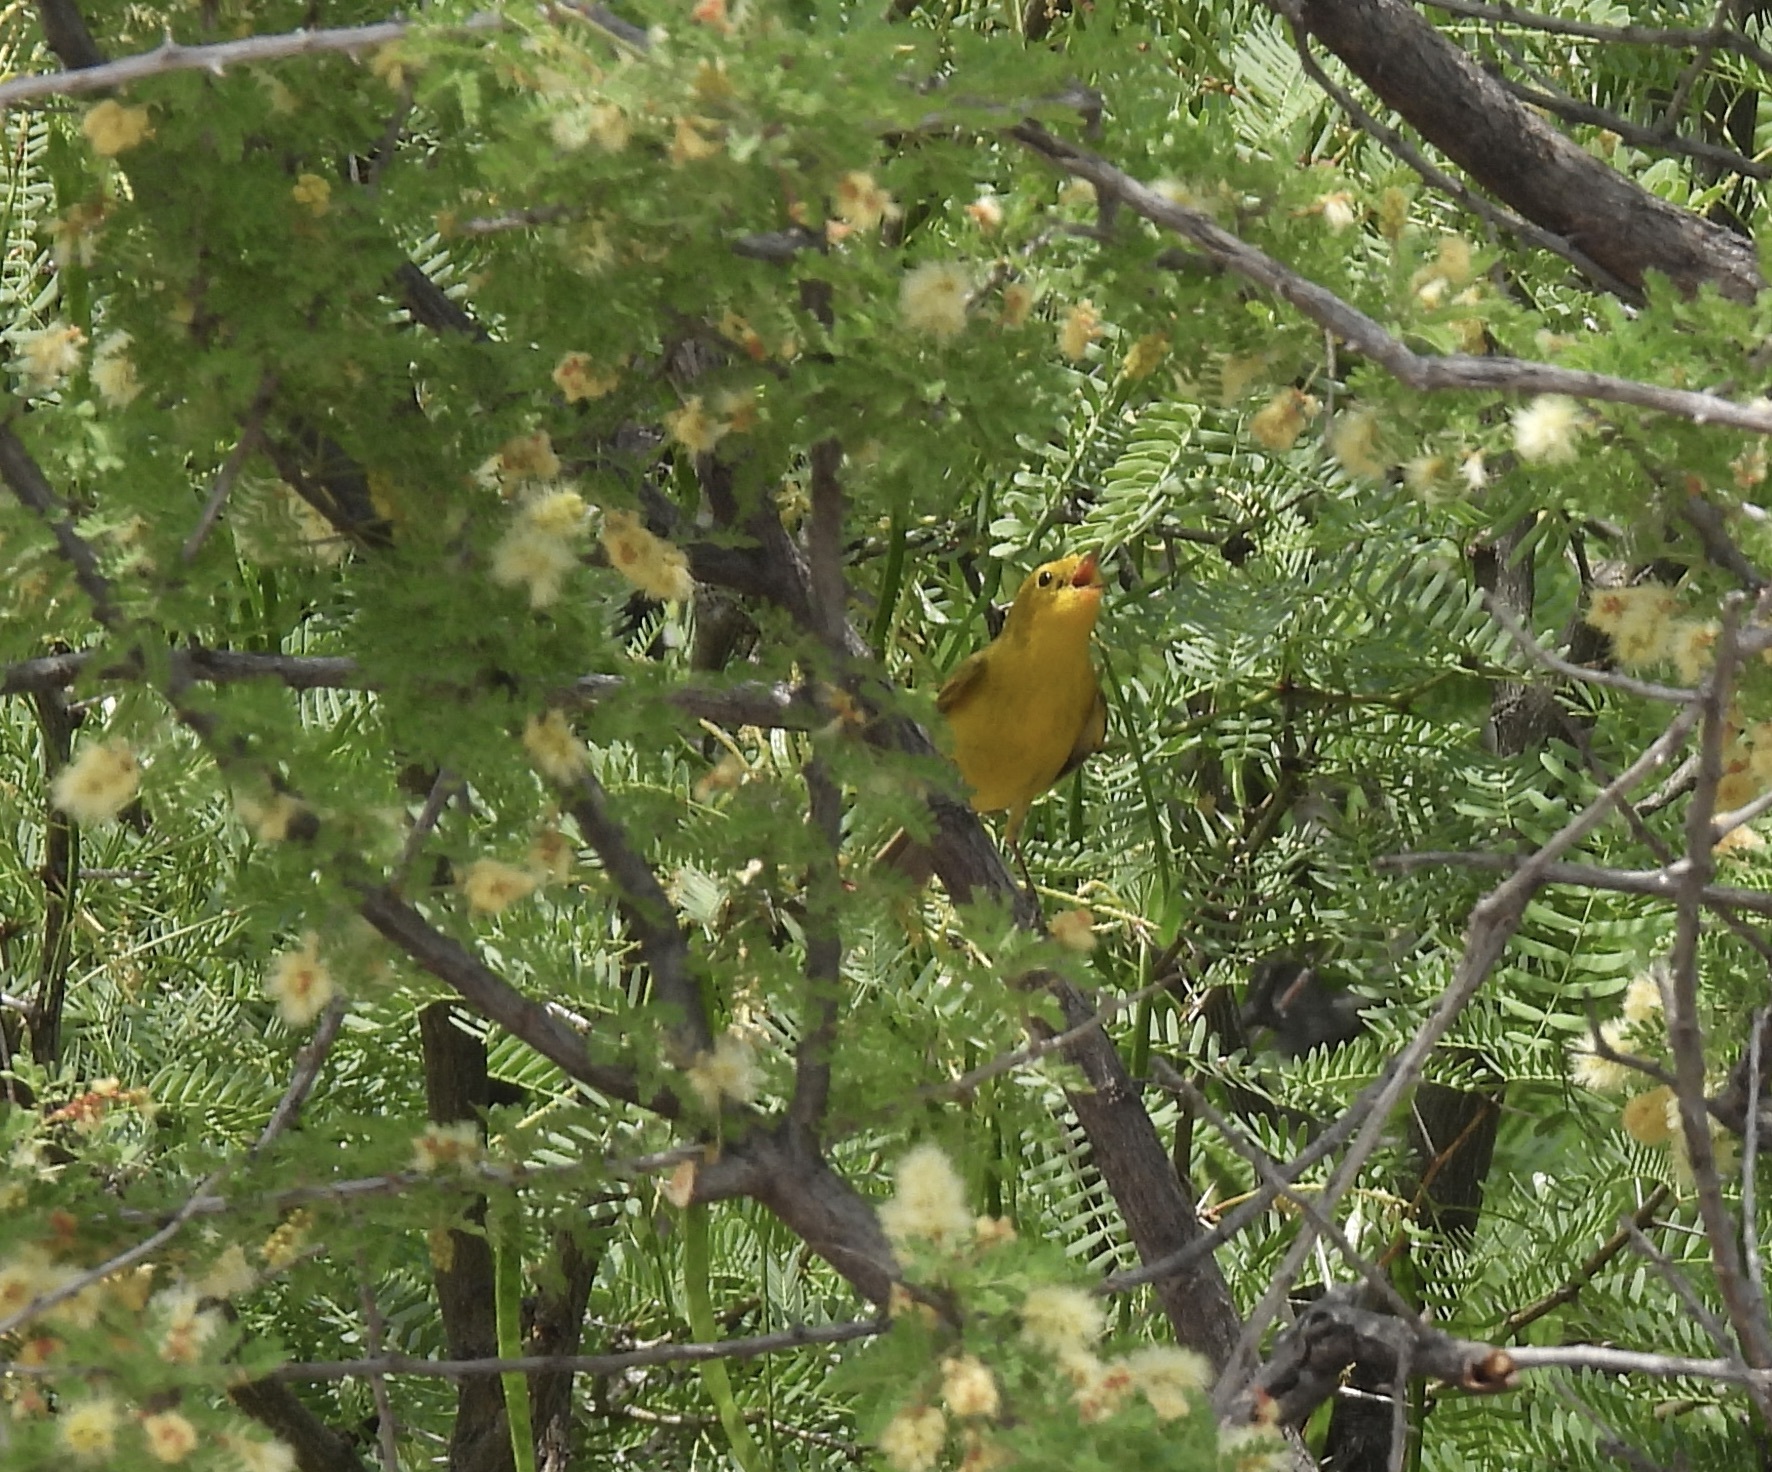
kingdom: Animalia
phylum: Chordata
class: Aves
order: Passeriformes
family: Parulidae
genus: Cardellina
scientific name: Cardellina pusilla
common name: Wilson's warbler
